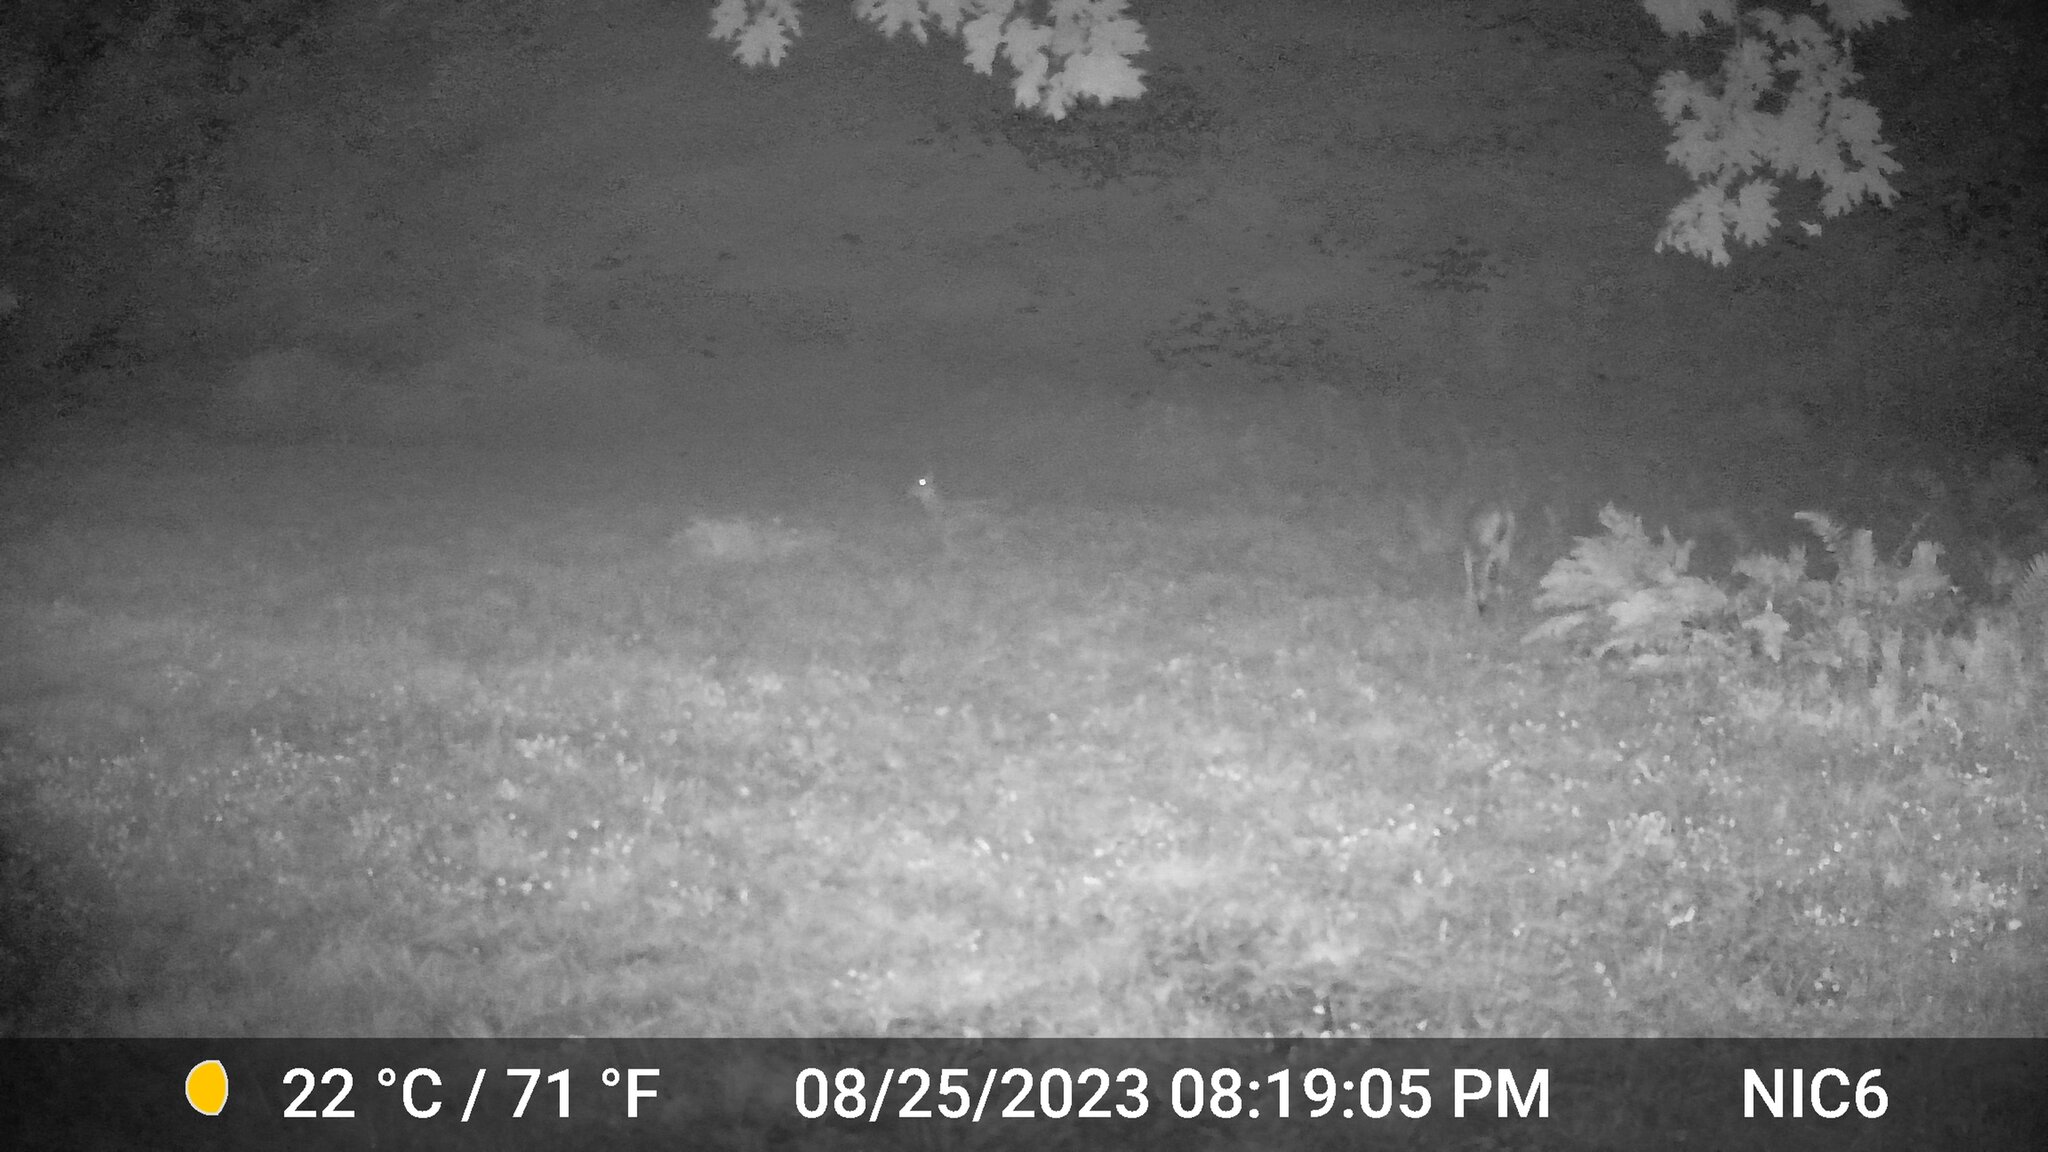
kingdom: Animalia
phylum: Chordata
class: Mammalia
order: Artiodactyla
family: Cervidae
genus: Odocoileus
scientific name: Odocoileus virginianus
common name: White-tailed deer
